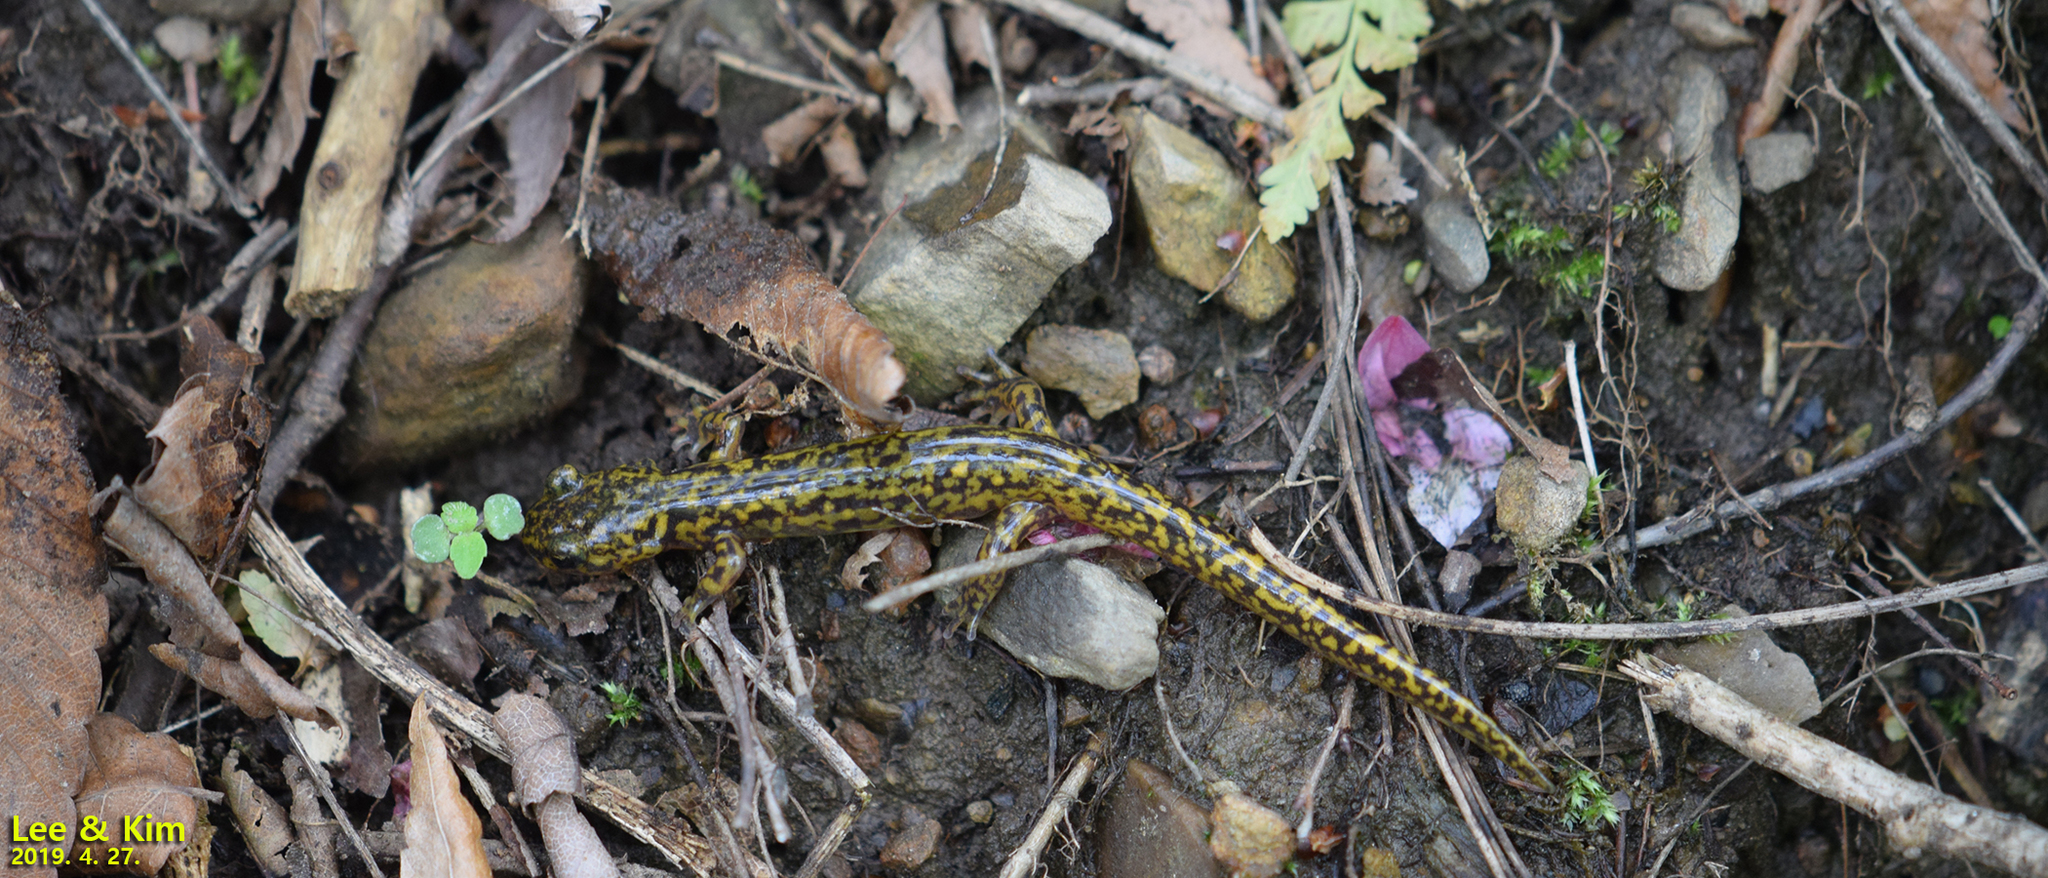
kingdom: Animalia
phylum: Chordata
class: Amphibia
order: Caudata
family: Hynobiidae
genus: Onychodactylus
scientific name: Onychodactylus koreanus
